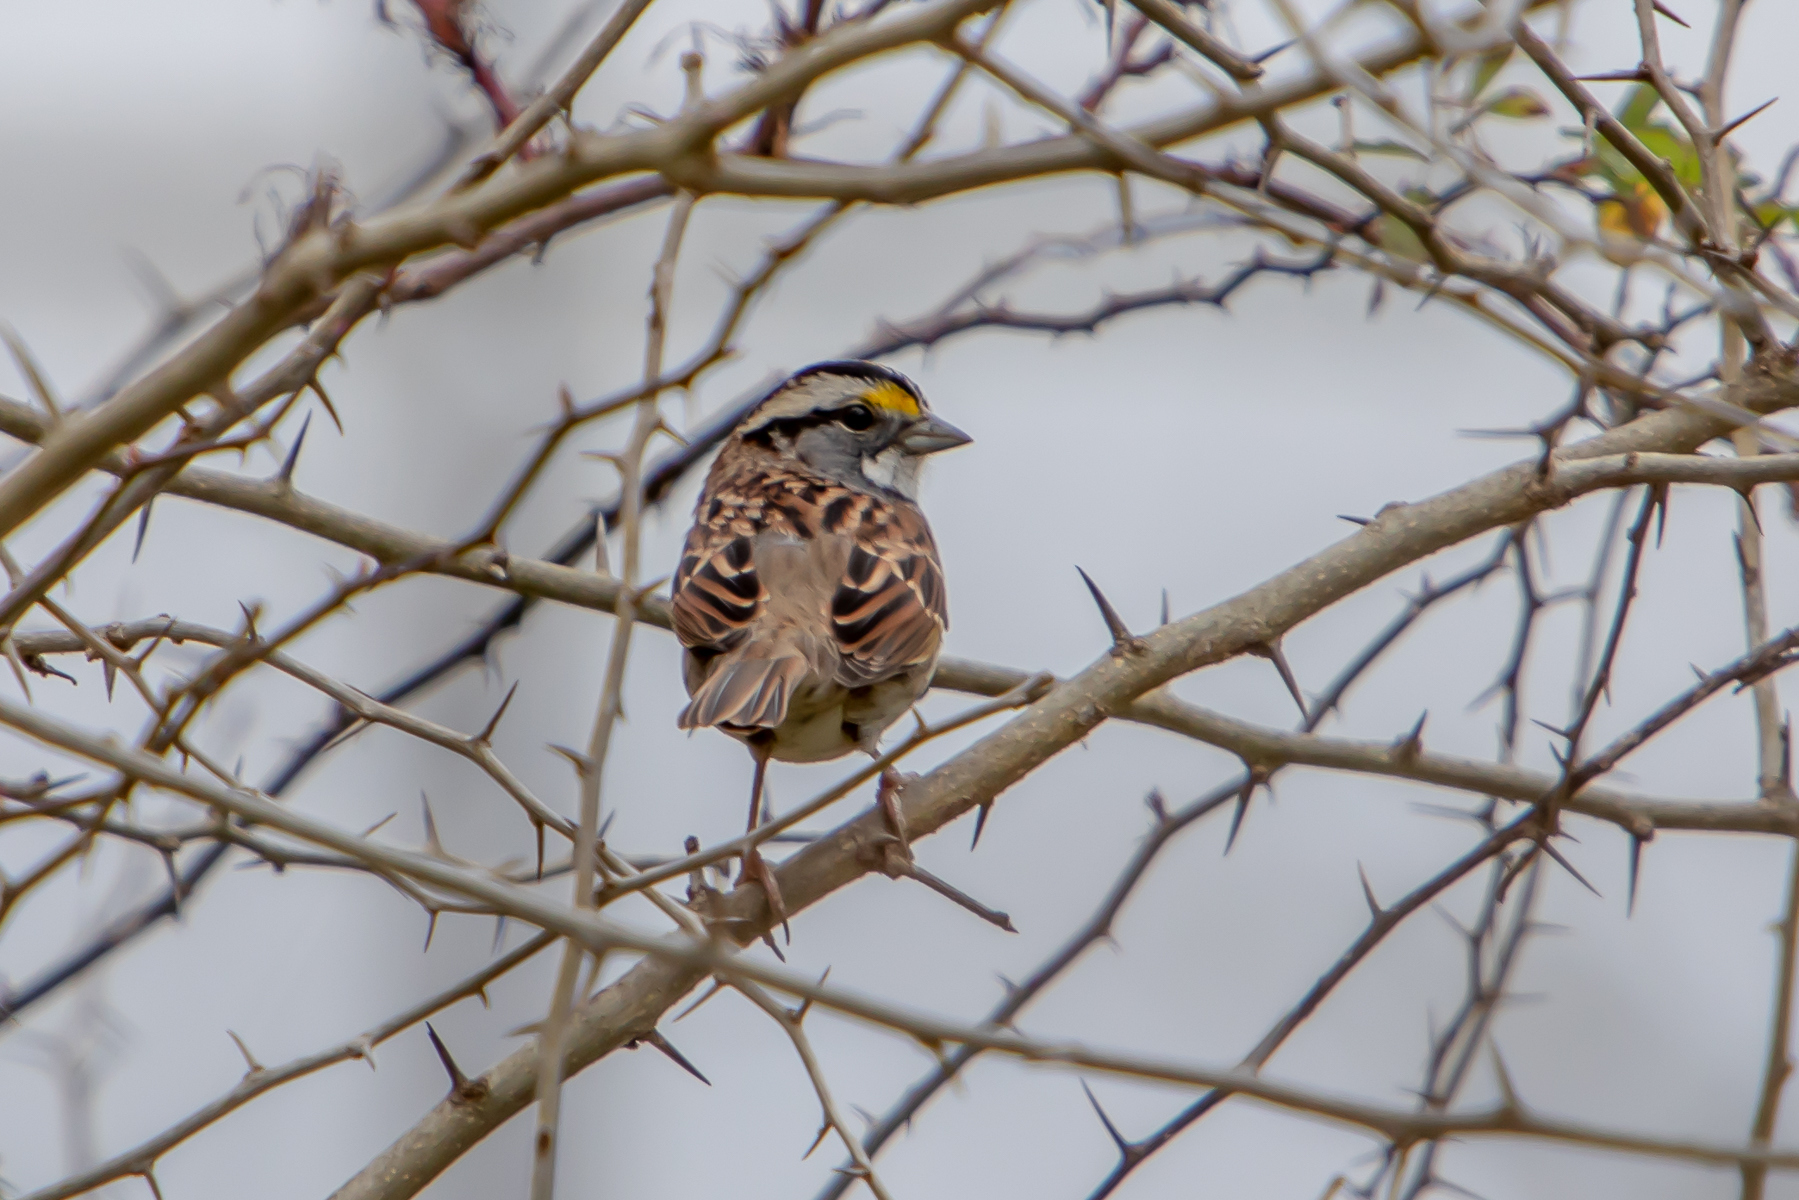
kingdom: Animalia
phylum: Chordata
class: Aves
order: Passeriformes
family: Passerellidae
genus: Zonotrichia
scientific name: Zonotrichia albicollis
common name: White-throated sparrow
